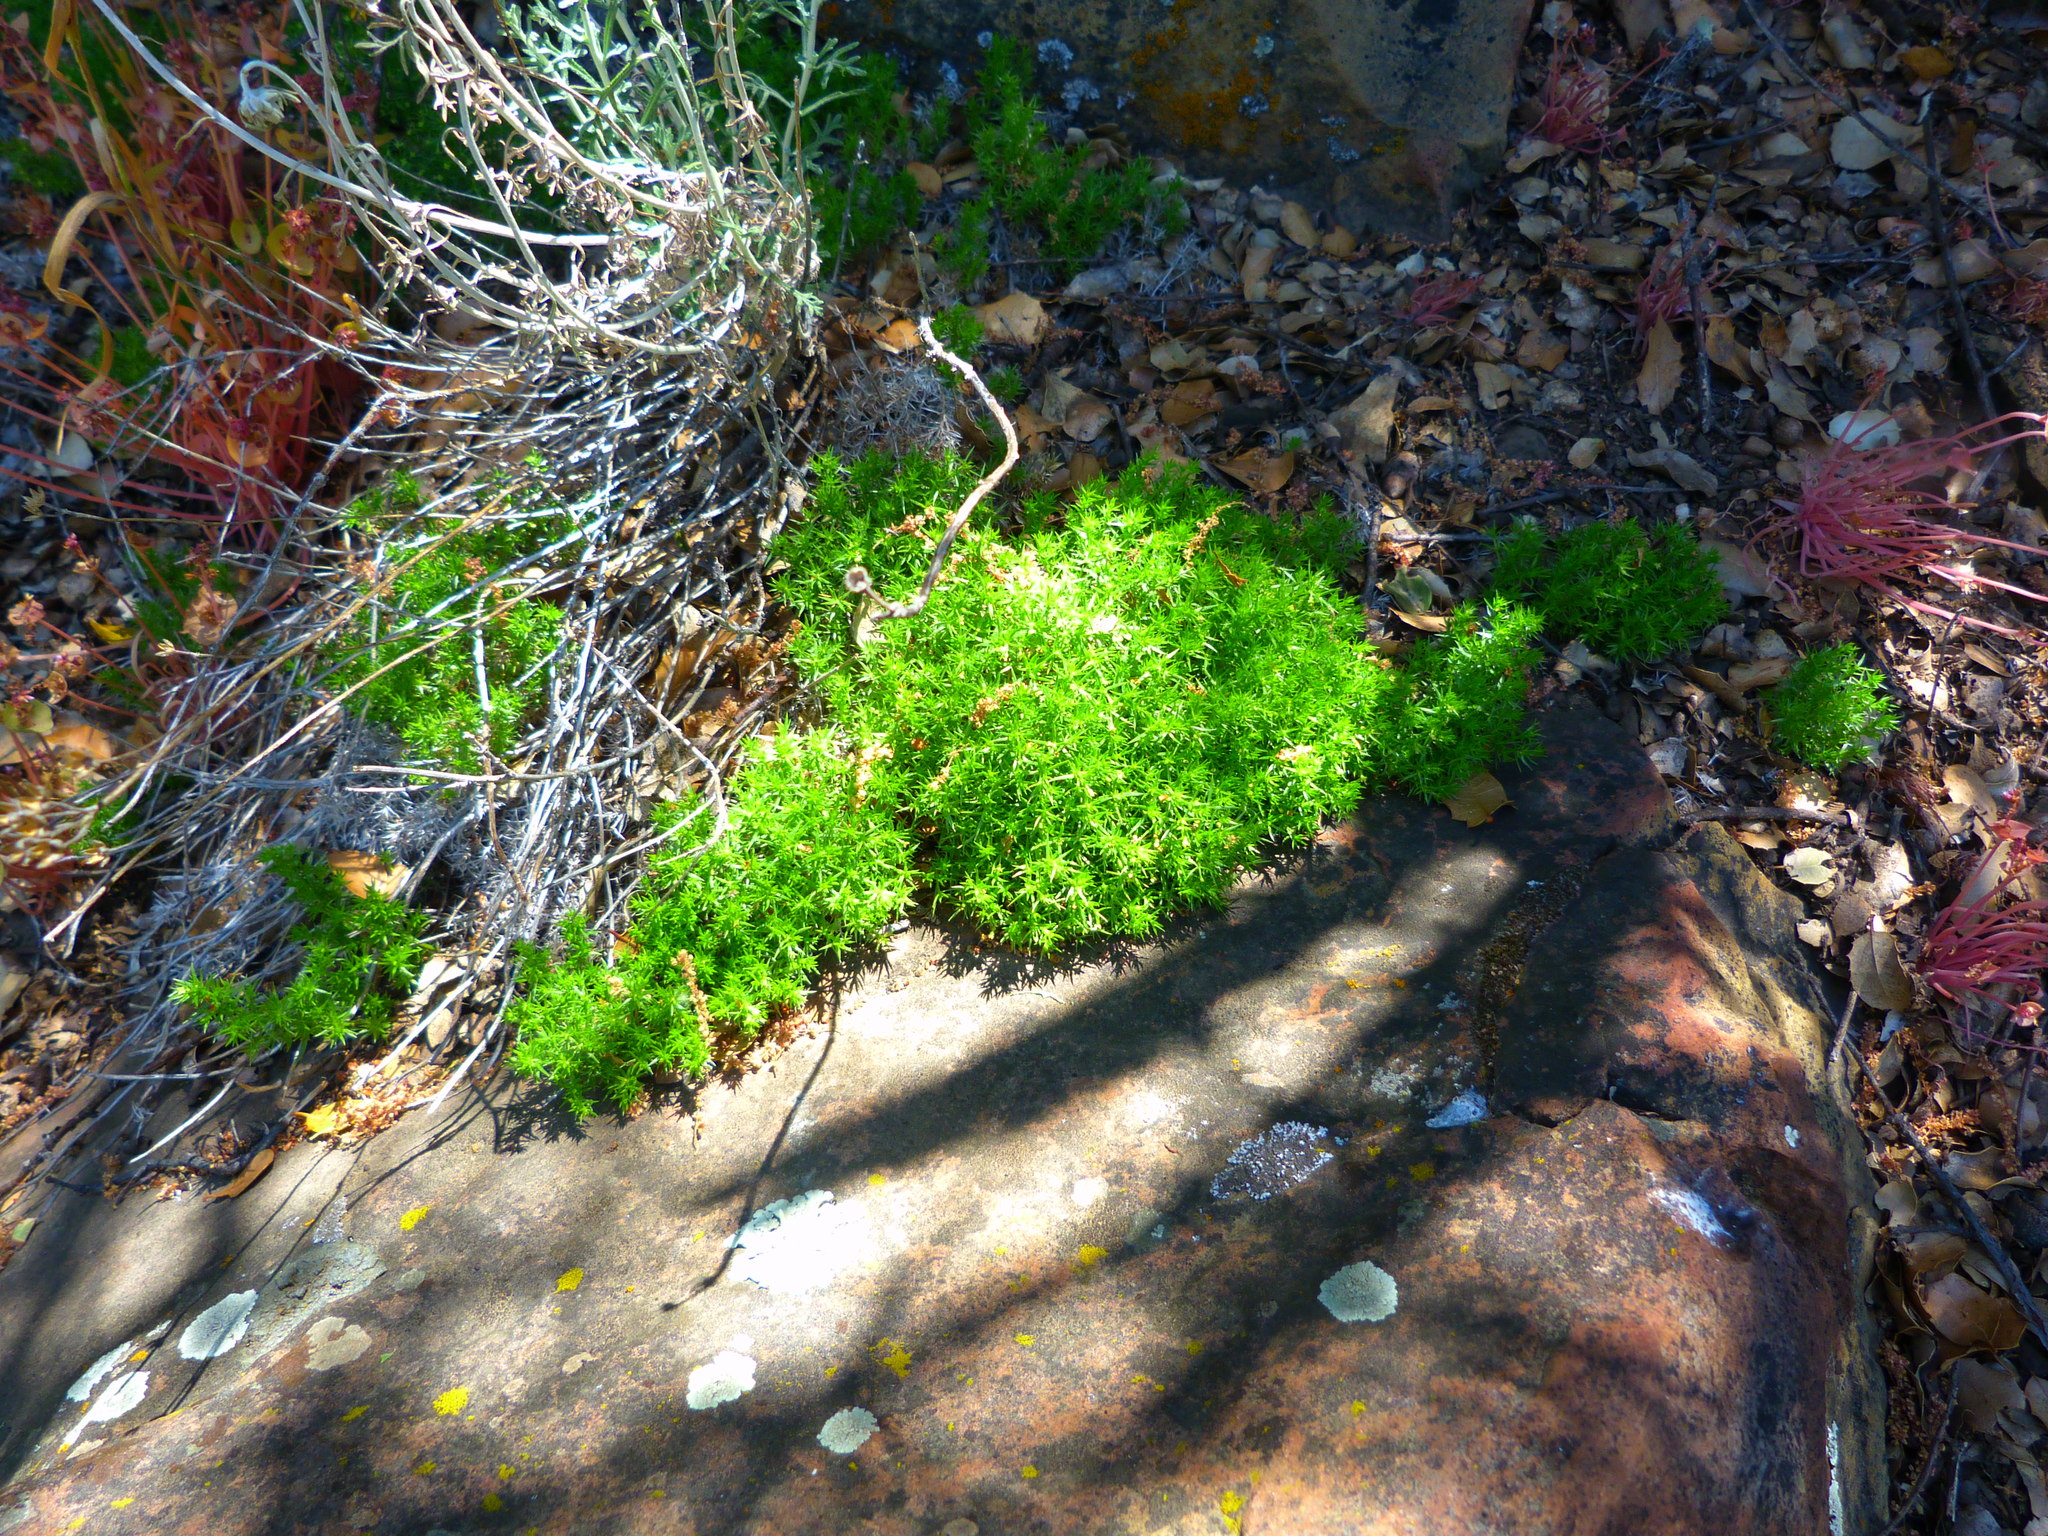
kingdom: Plantae
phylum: Tracheophyta
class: Magnoliopsida
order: Gentianales
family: Rubiaceae
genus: Galium
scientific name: Galium andrewsii
